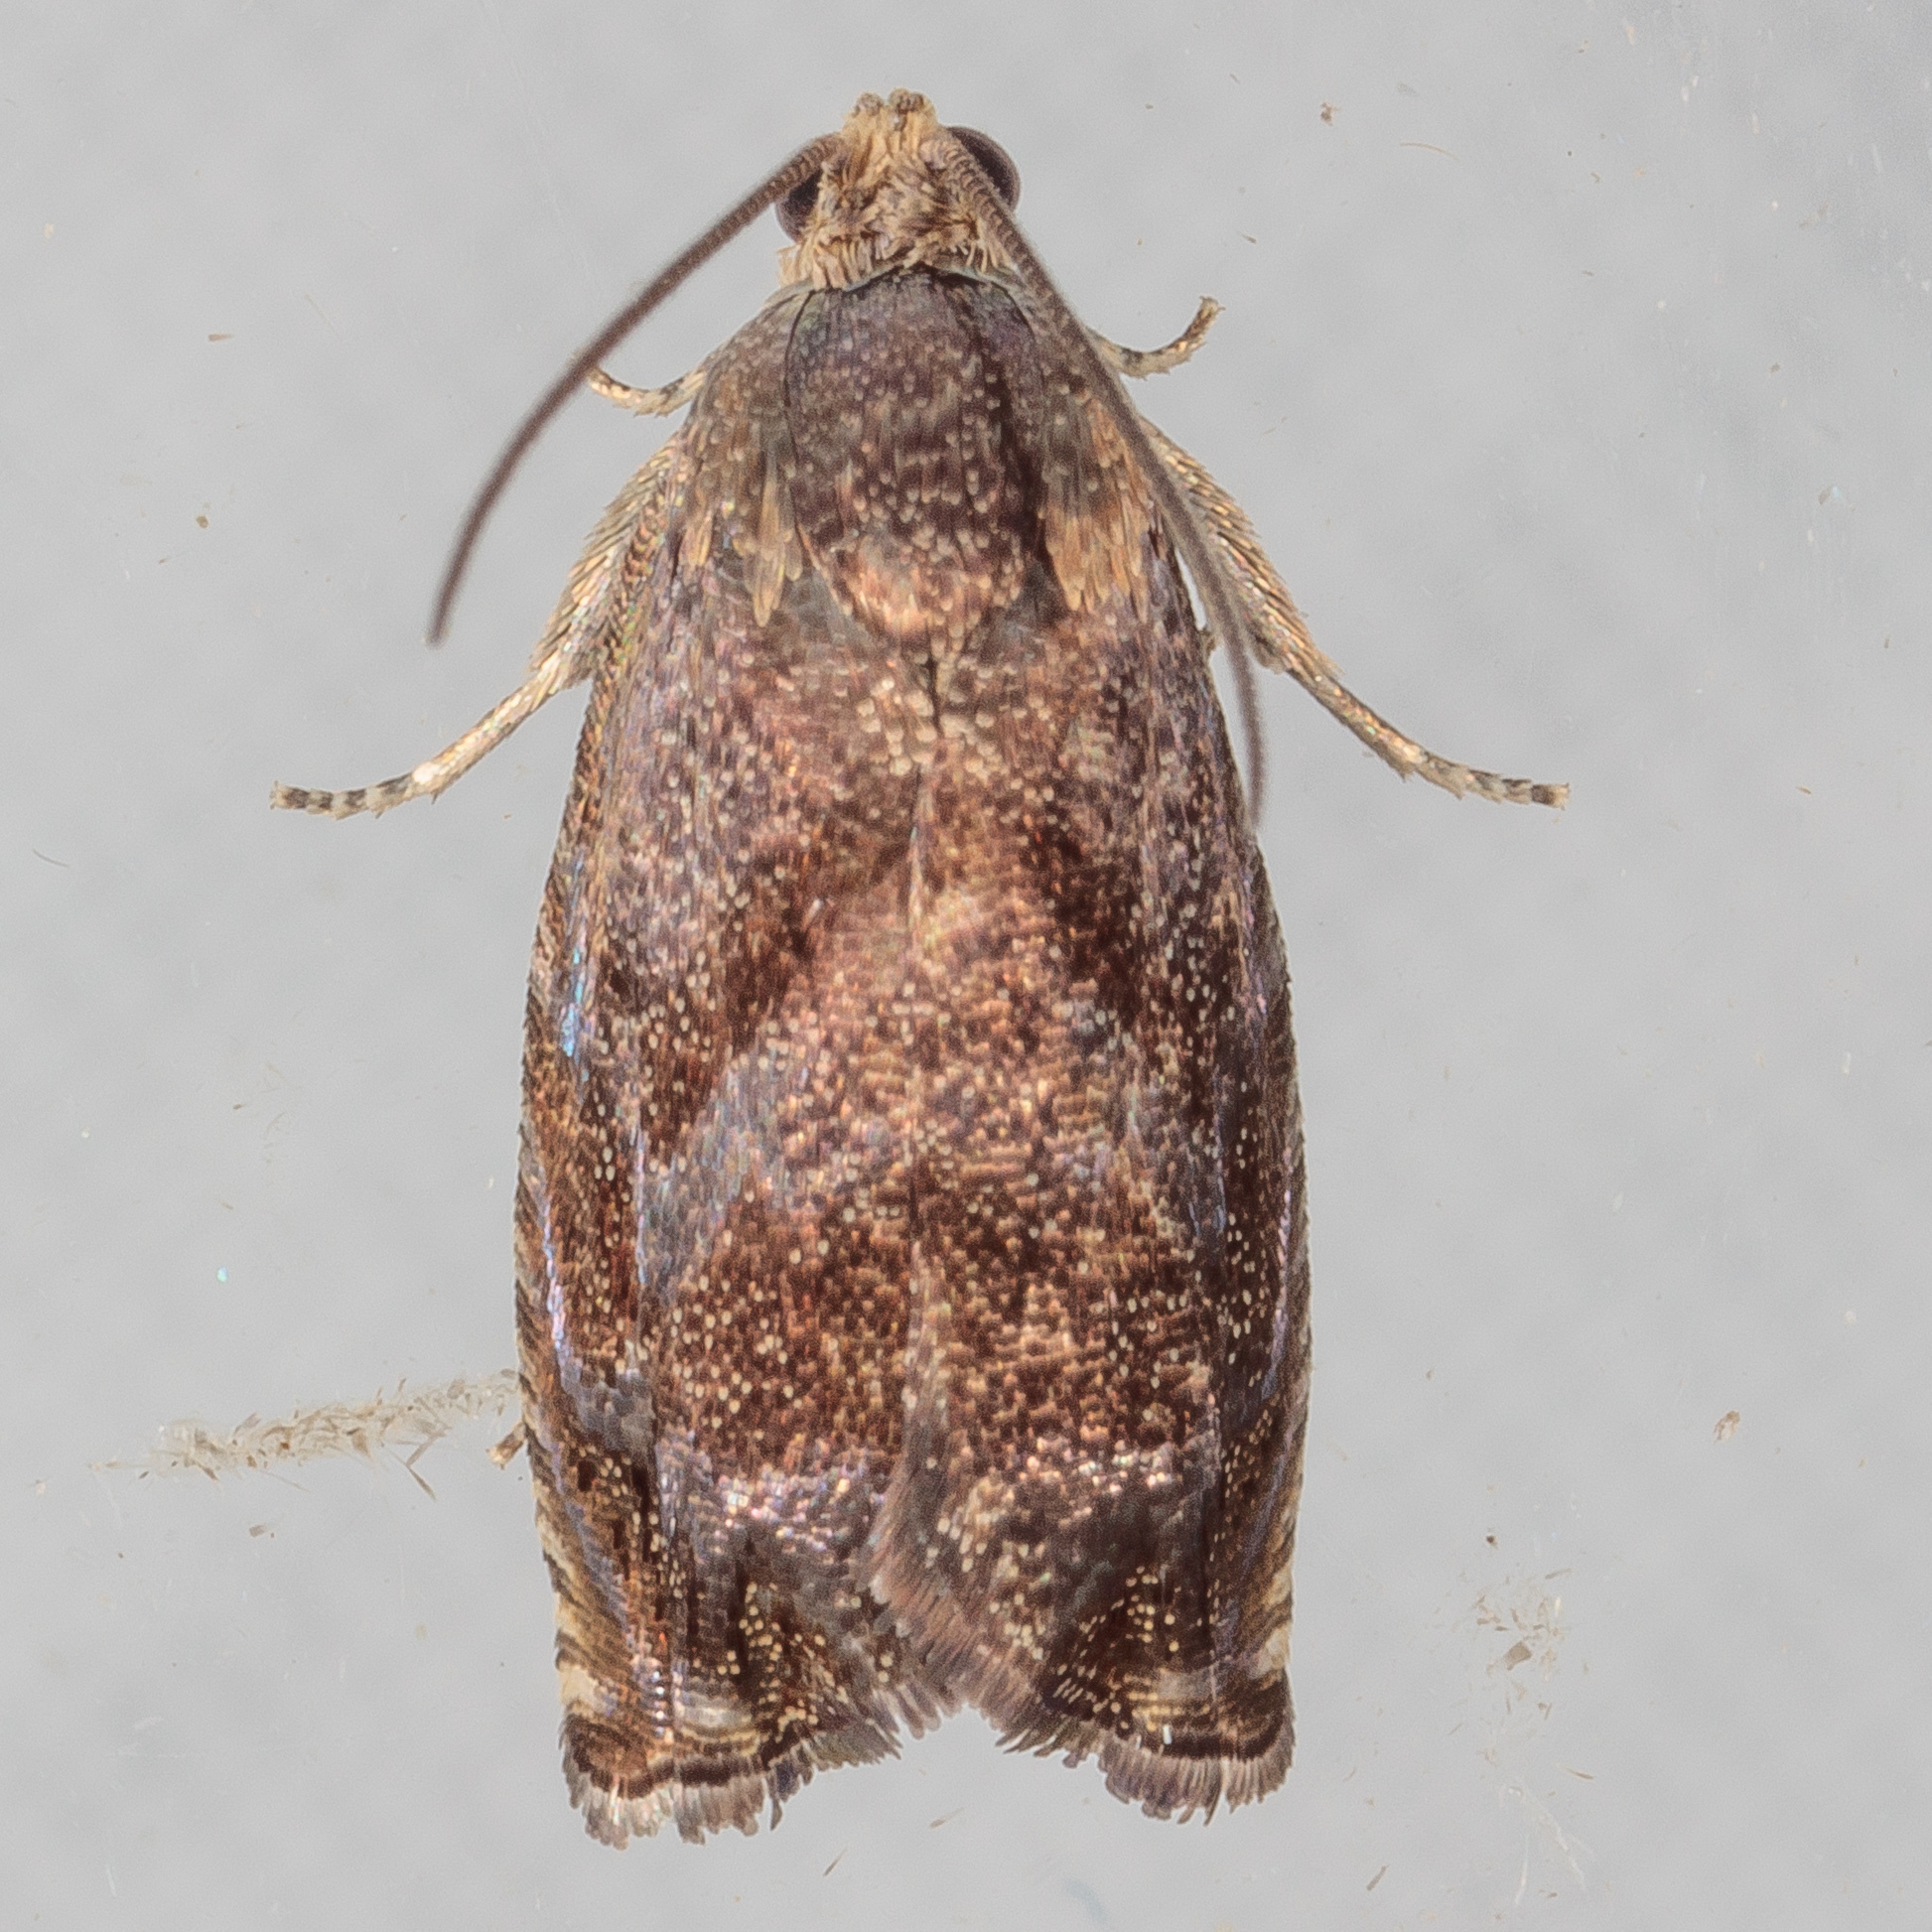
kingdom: Animalia
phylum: Arthropoda
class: Insecta
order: Lepidoptera
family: Tortricidae
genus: Cydia
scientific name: Cydia caryana
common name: Hickory shuckworm moth
